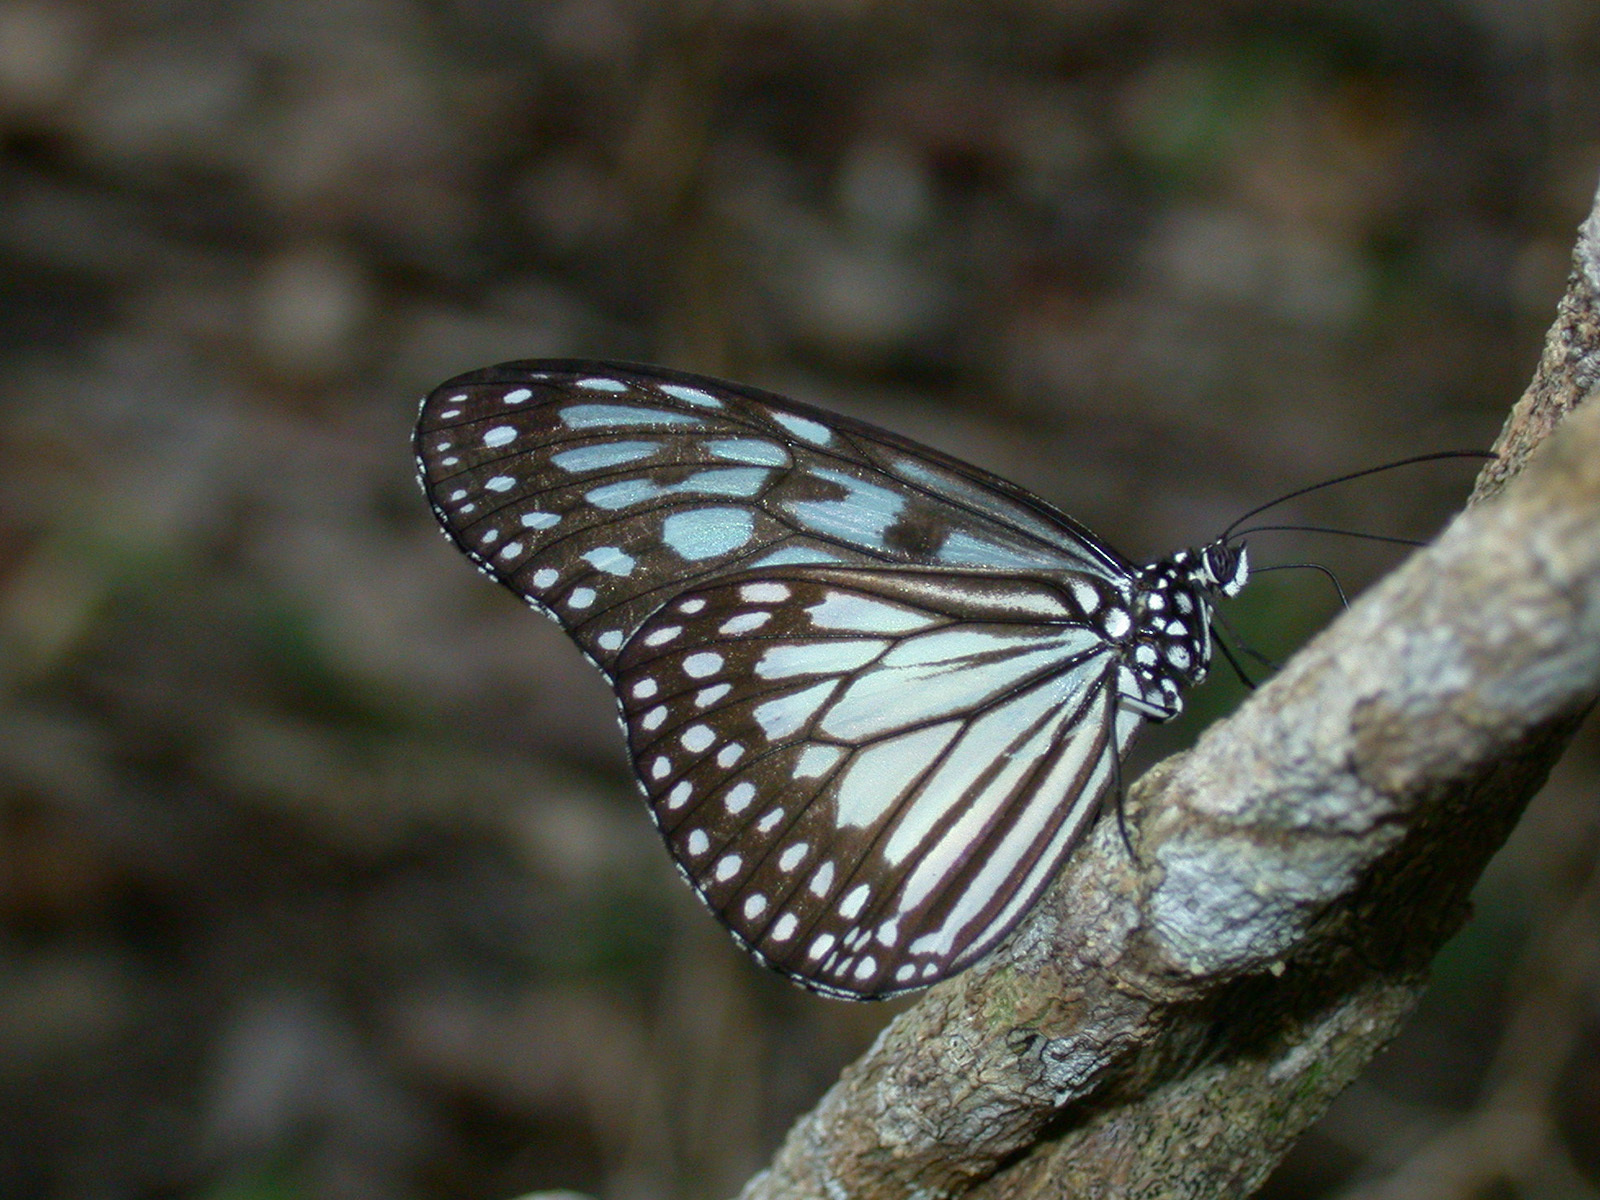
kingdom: Animalia
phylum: Arthropoda
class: Insecta
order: Lepidoptera
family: Nymphalidae
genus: Ideopsis
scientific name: Ideopsis juventa
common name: Grey glassy tiger
